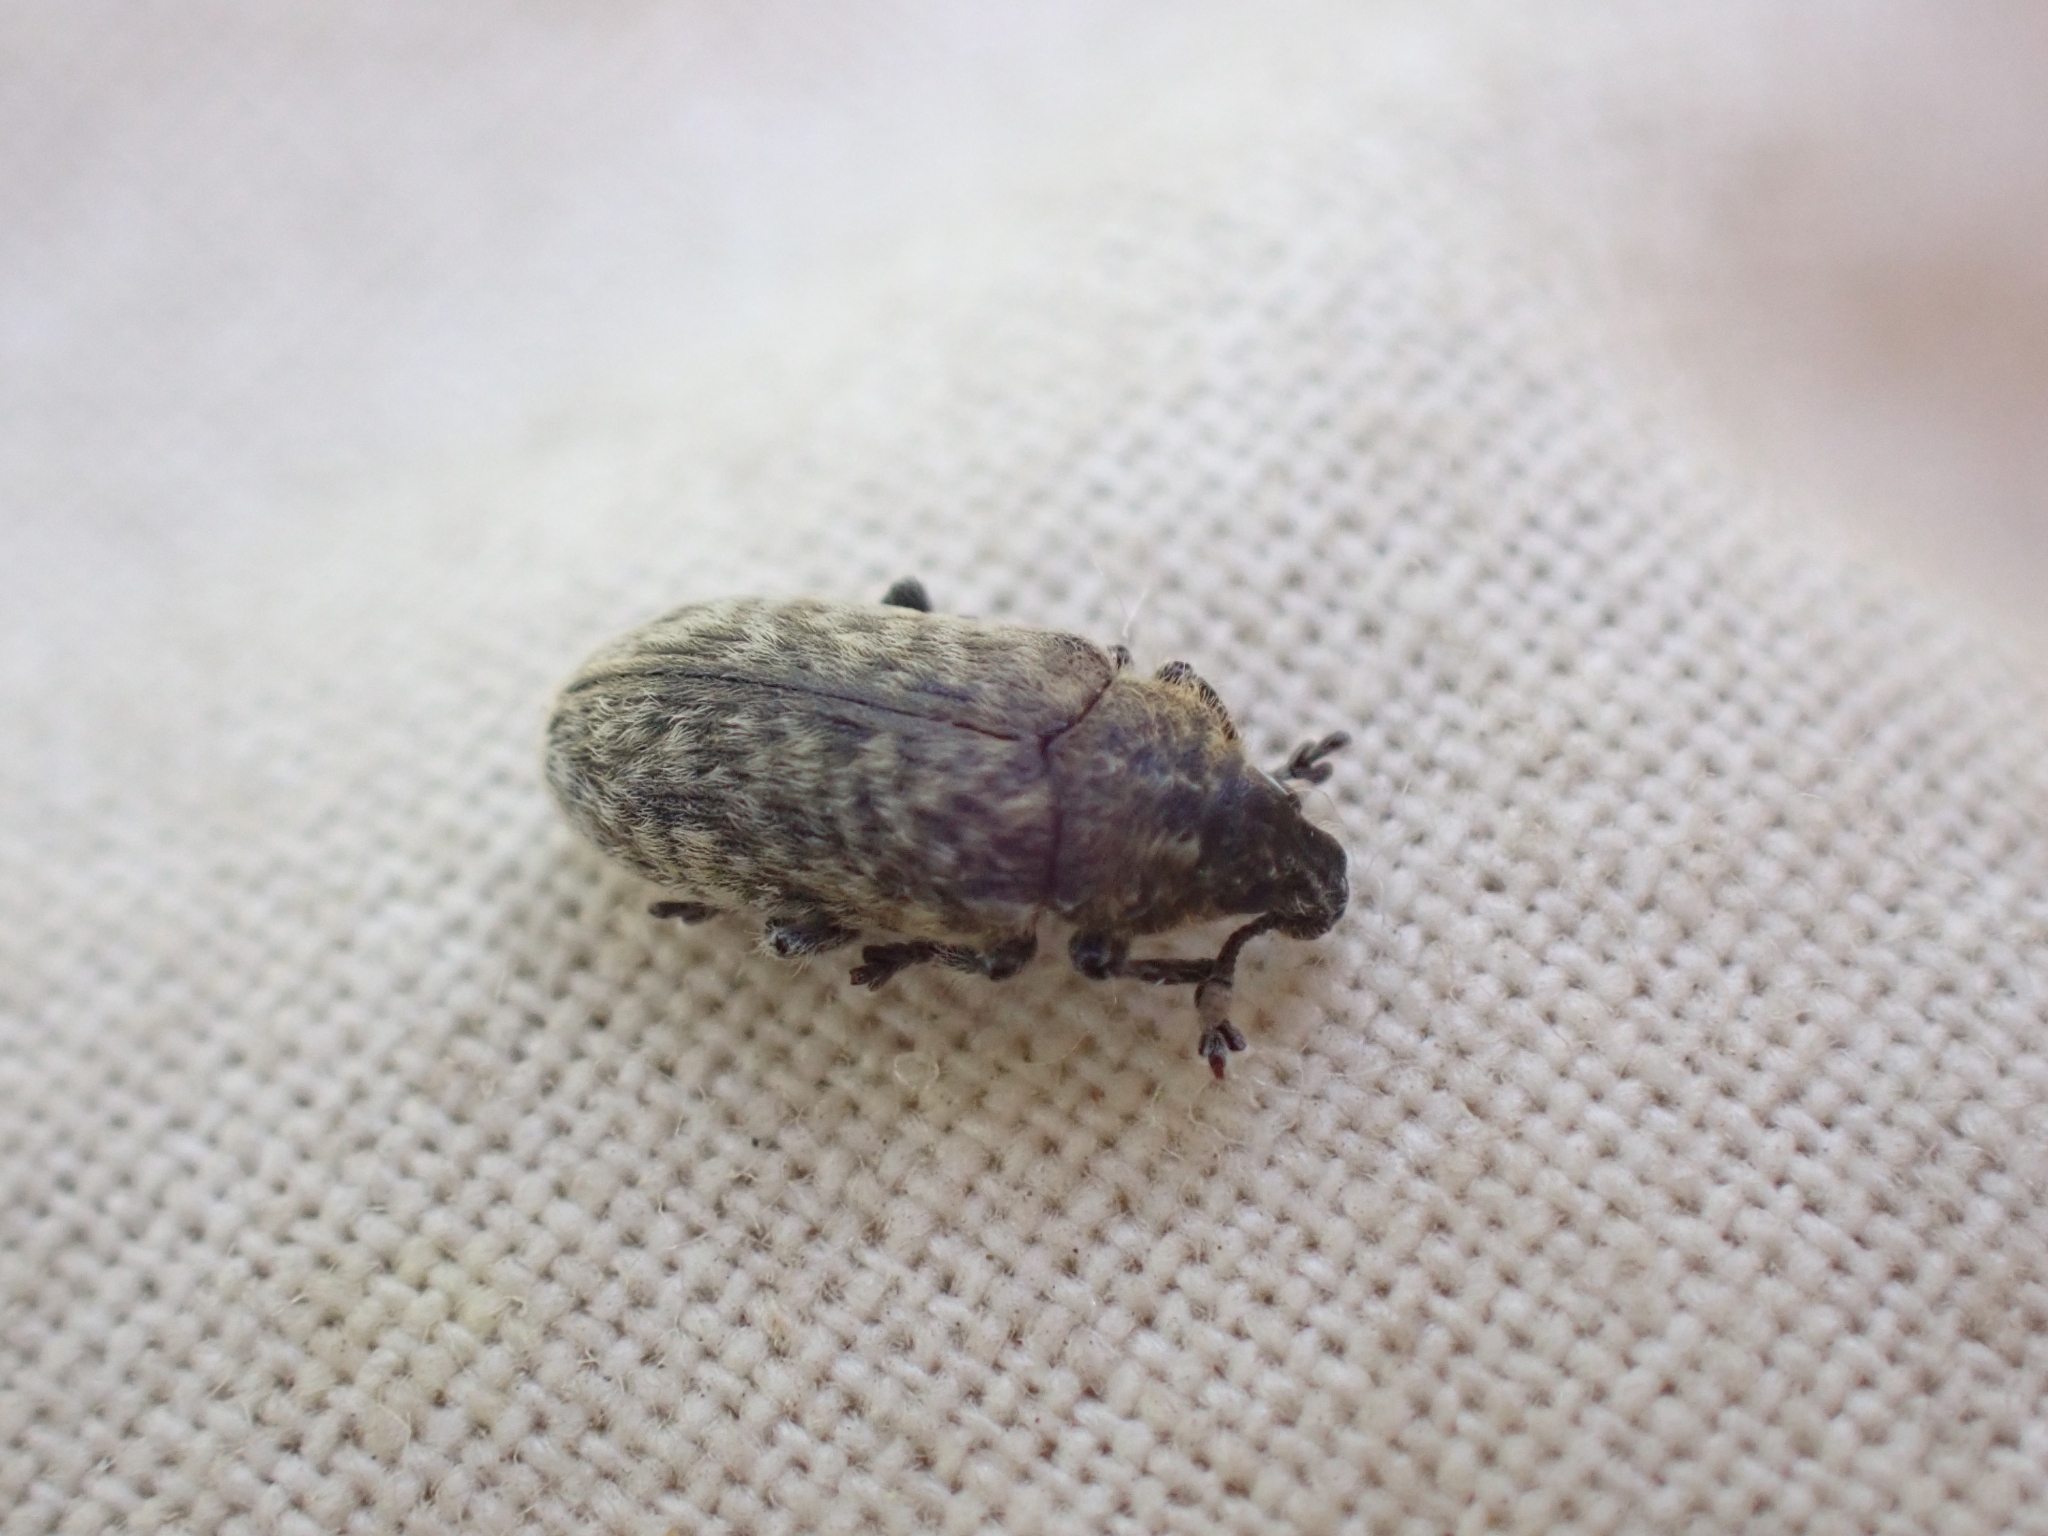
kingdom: Animalia
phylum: Arthropoda
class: Insecta
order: Coleoptera
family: Curculionidae
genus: Rhinocyllus
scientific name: Rhinocyllus conicus
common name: Weevil
